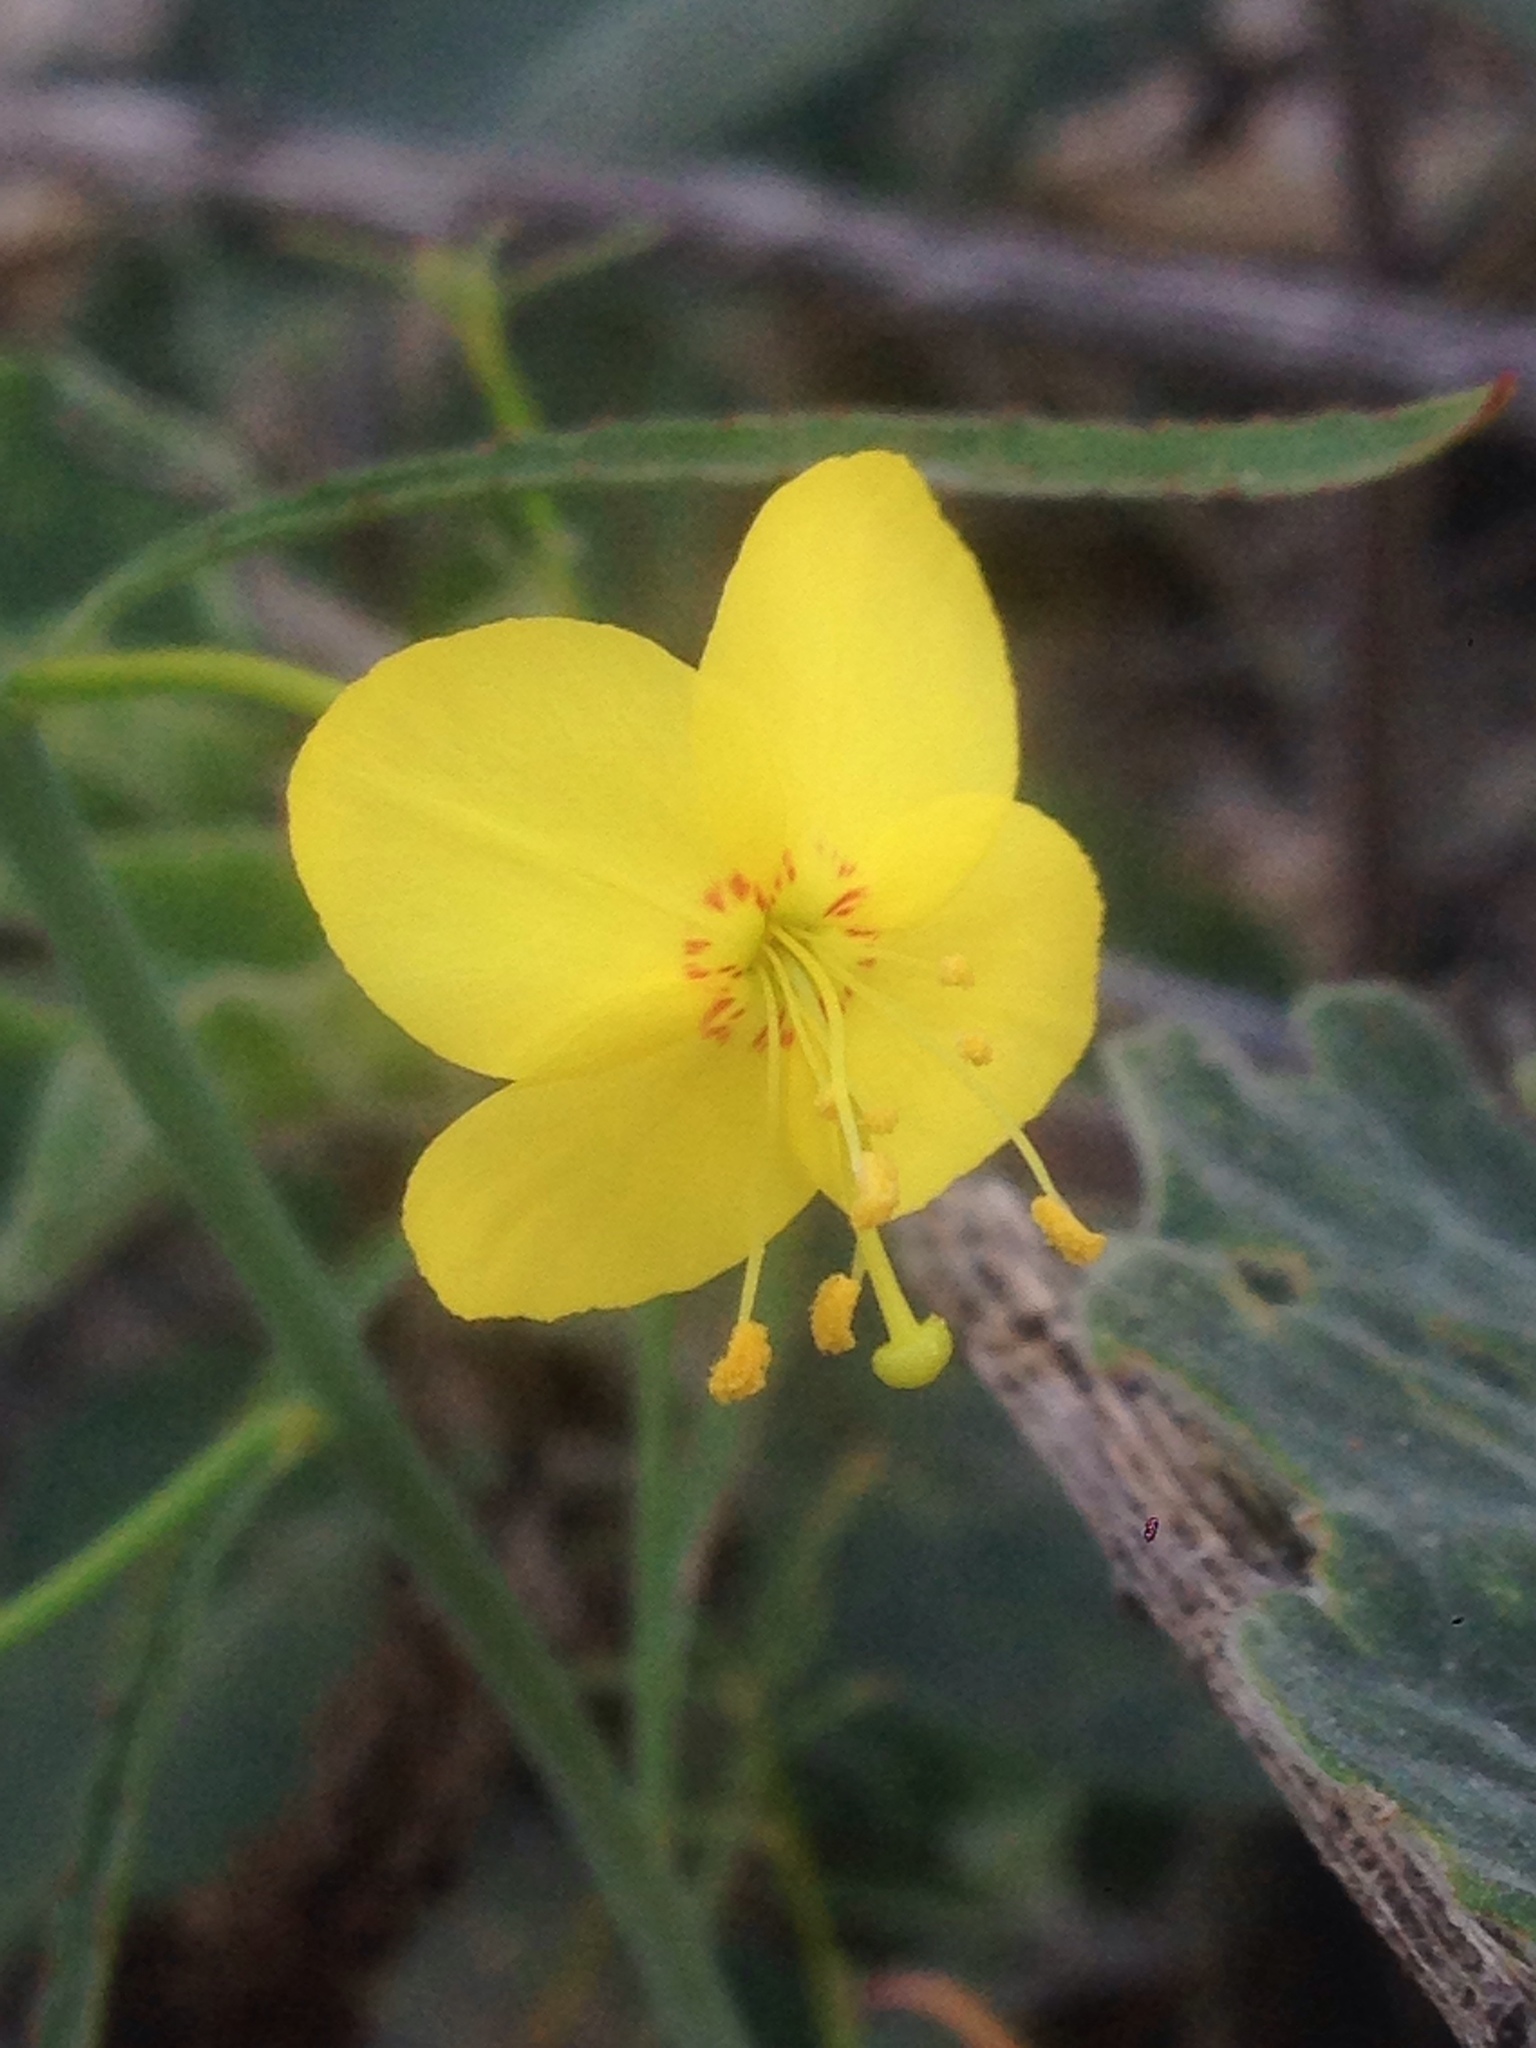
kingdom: Plantae
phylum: Tracheophyta
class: Magnoliopsida
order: Myrtales
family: Onagraceae
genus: Eulobus
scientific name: Eulobus californicus
